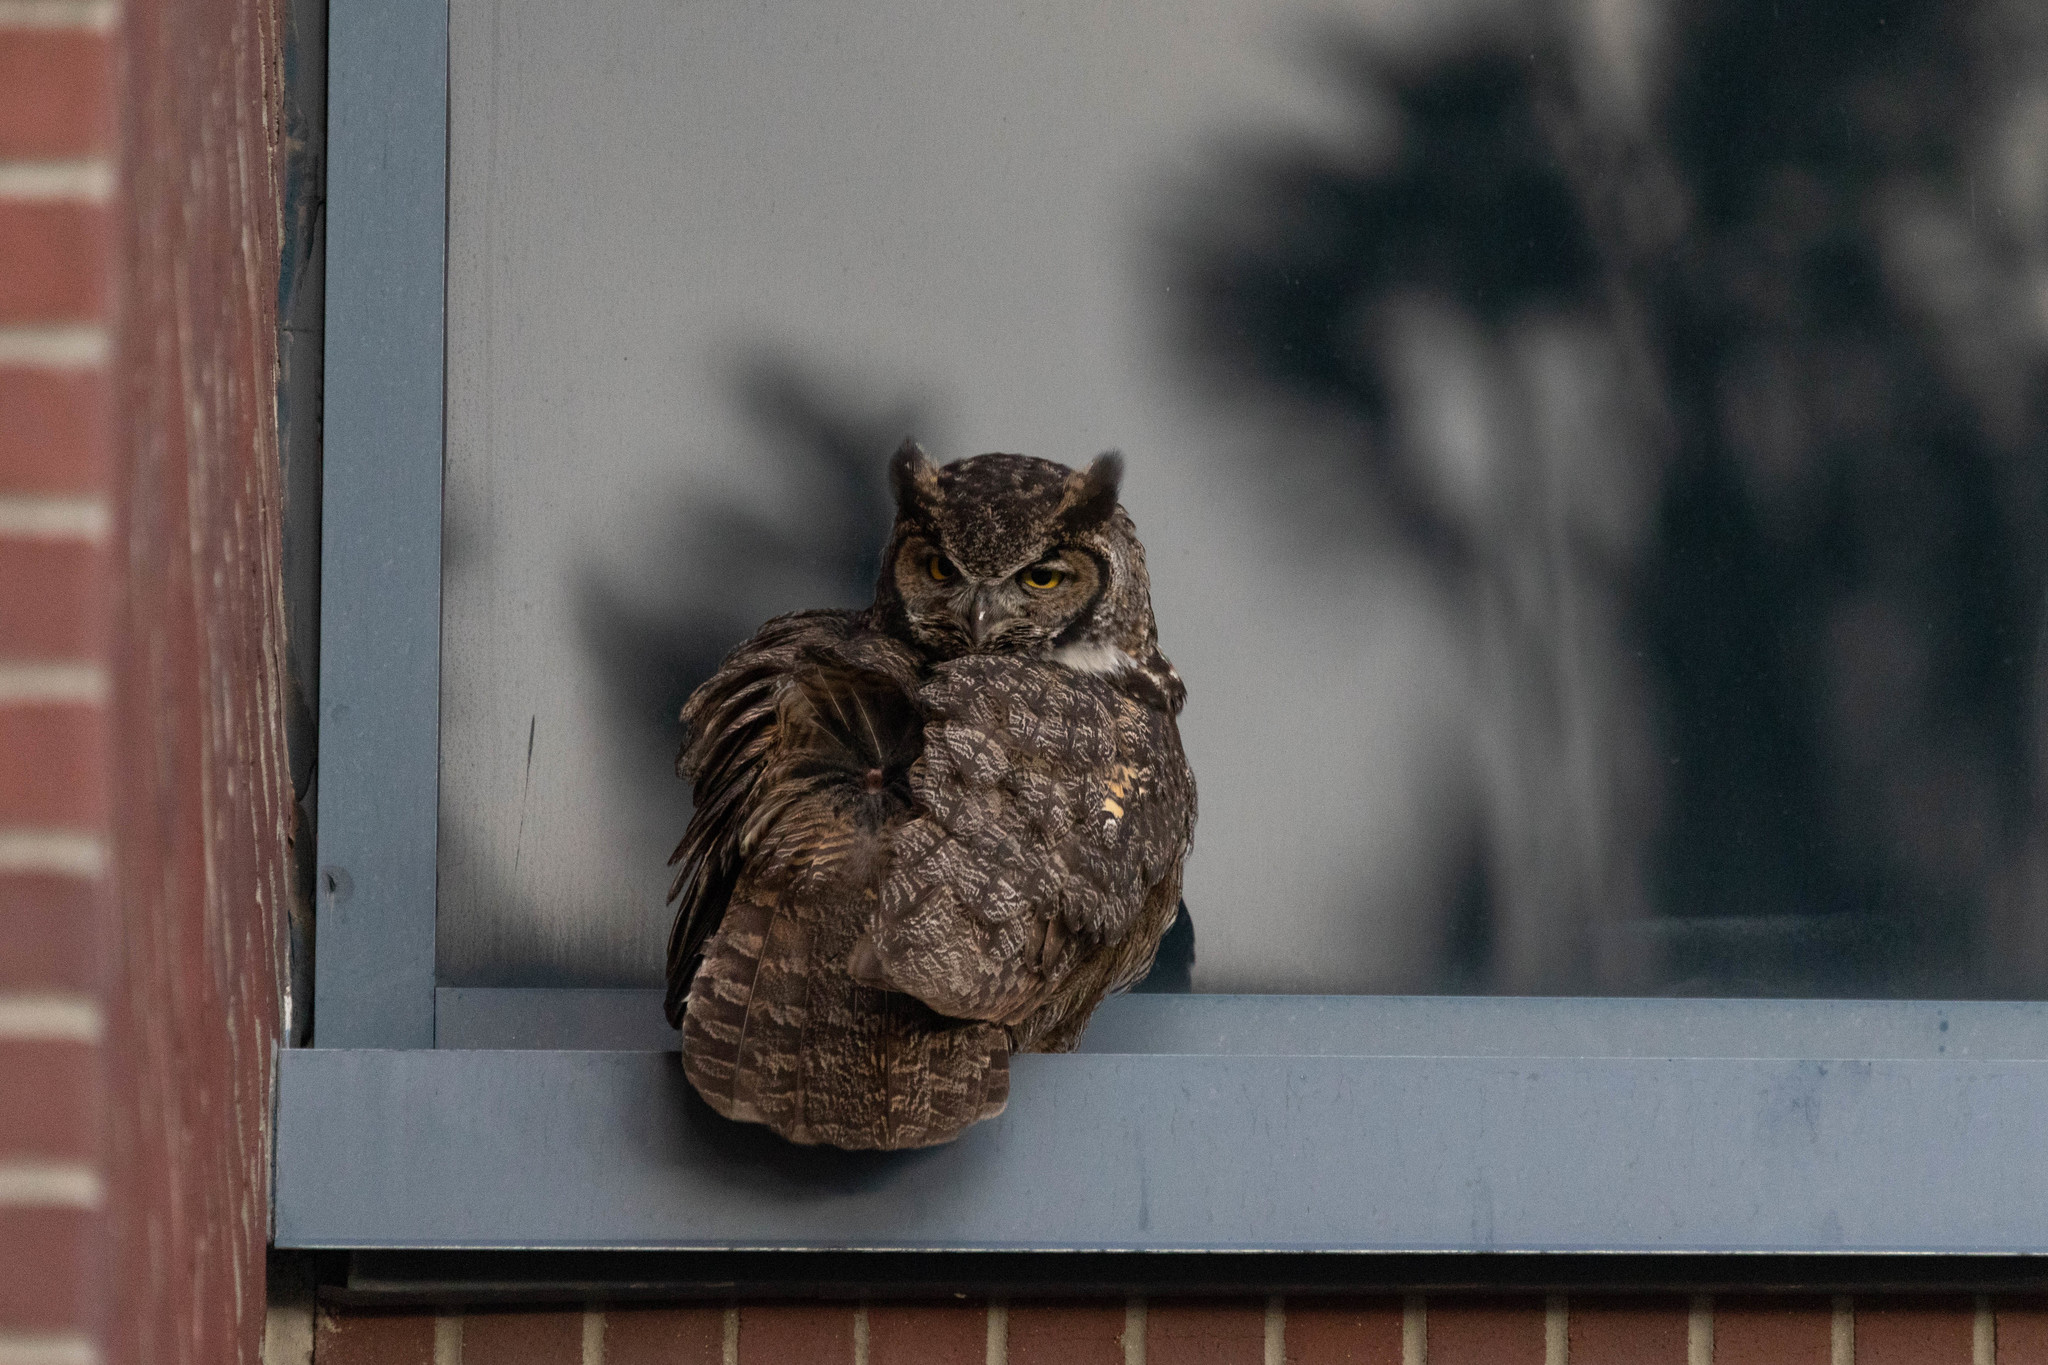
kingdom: Animalia
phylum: Chordata
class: Aves
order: Strigiformes
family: Strigidae
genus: Bubo
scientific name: Bubo virginianus
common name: Great horned owl
